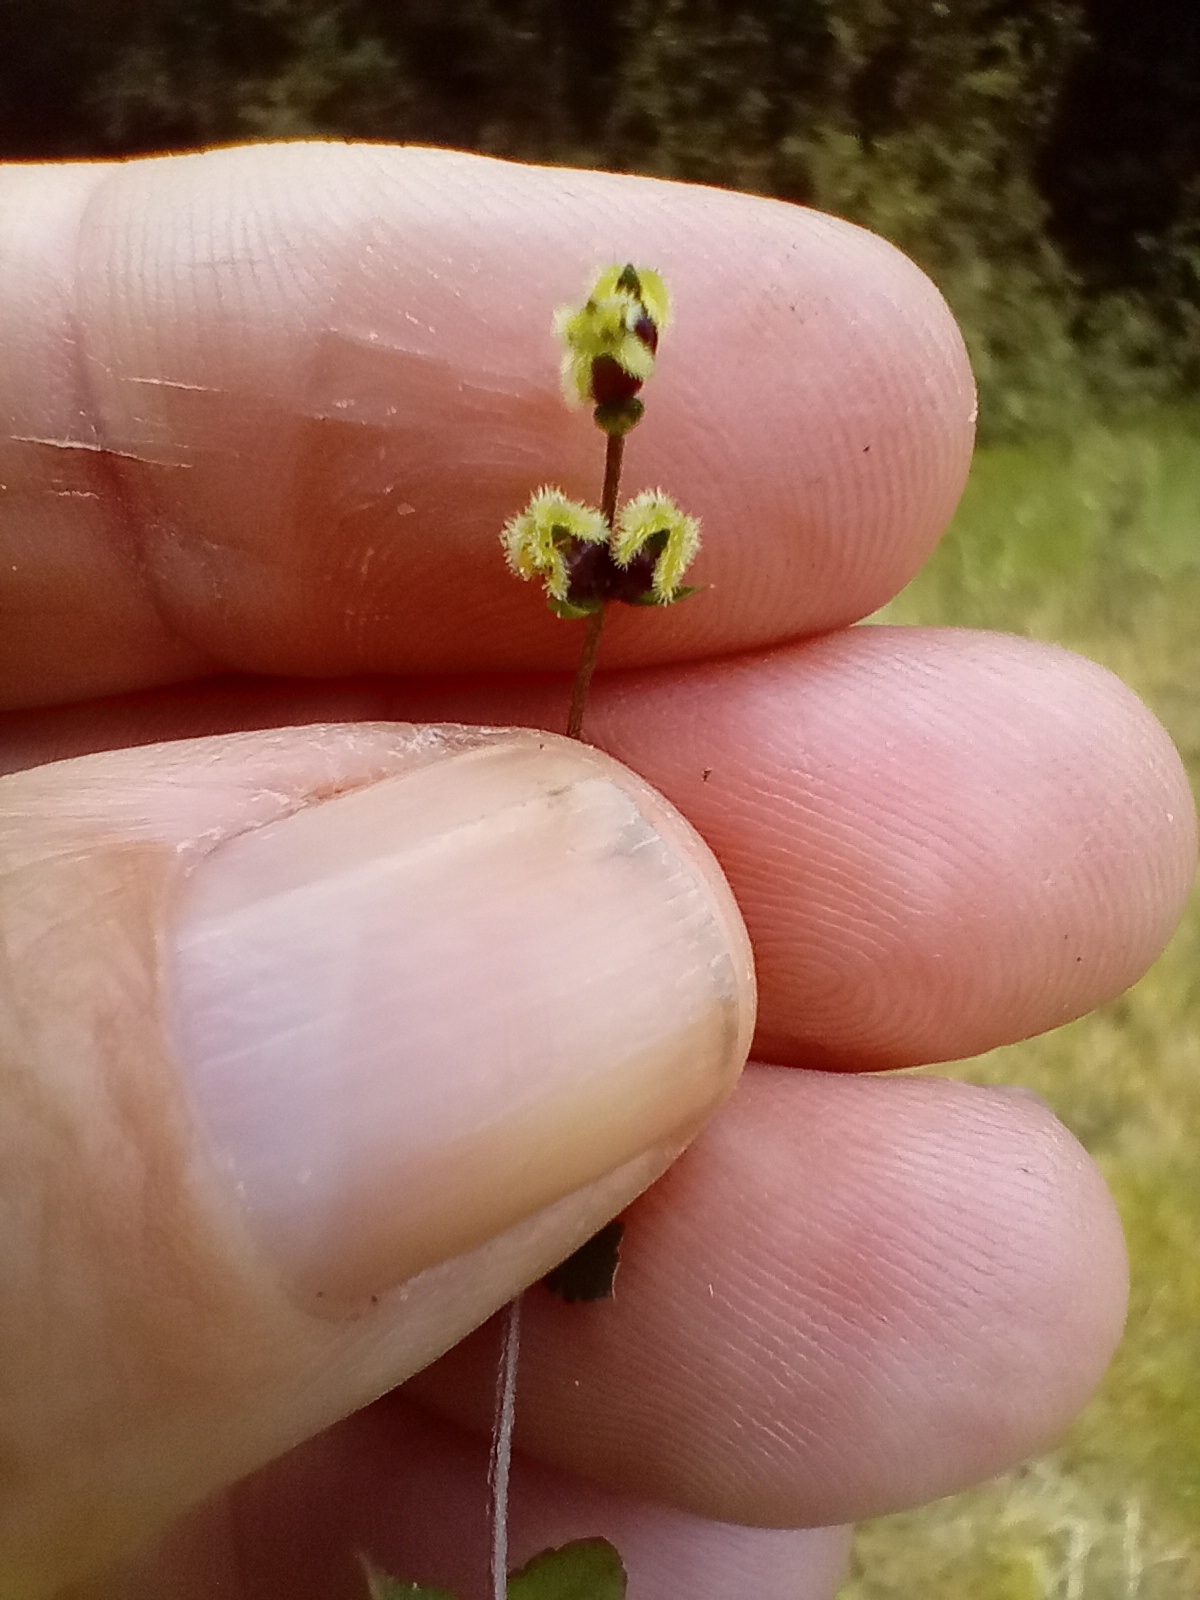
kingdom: Plantae
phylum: Tracheophyta
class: Magnoliopsida
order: Saxifragales
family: Haloragaceae
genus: Gonocarpus
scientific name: Gonocarpus aggregatus
